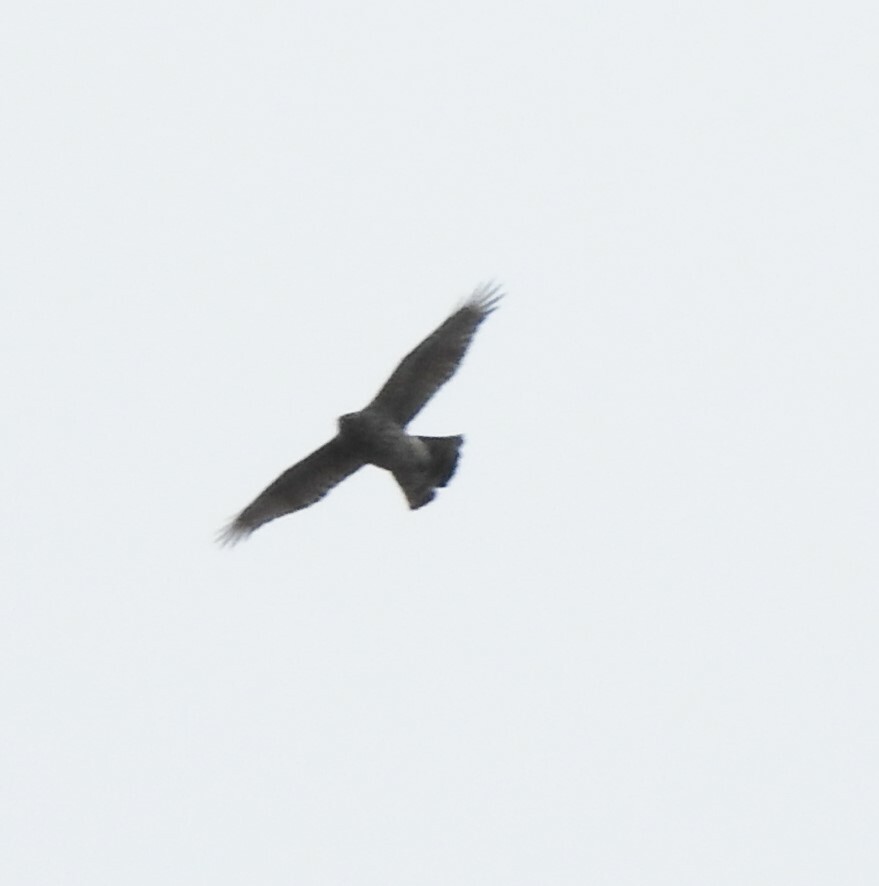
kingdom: Animalia
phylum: Chordata
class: Aves
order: Accipitriformes
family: Accipitridae
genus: Accipiter
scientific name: Accipiter nisus
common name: Eurasian sparrowhawk
